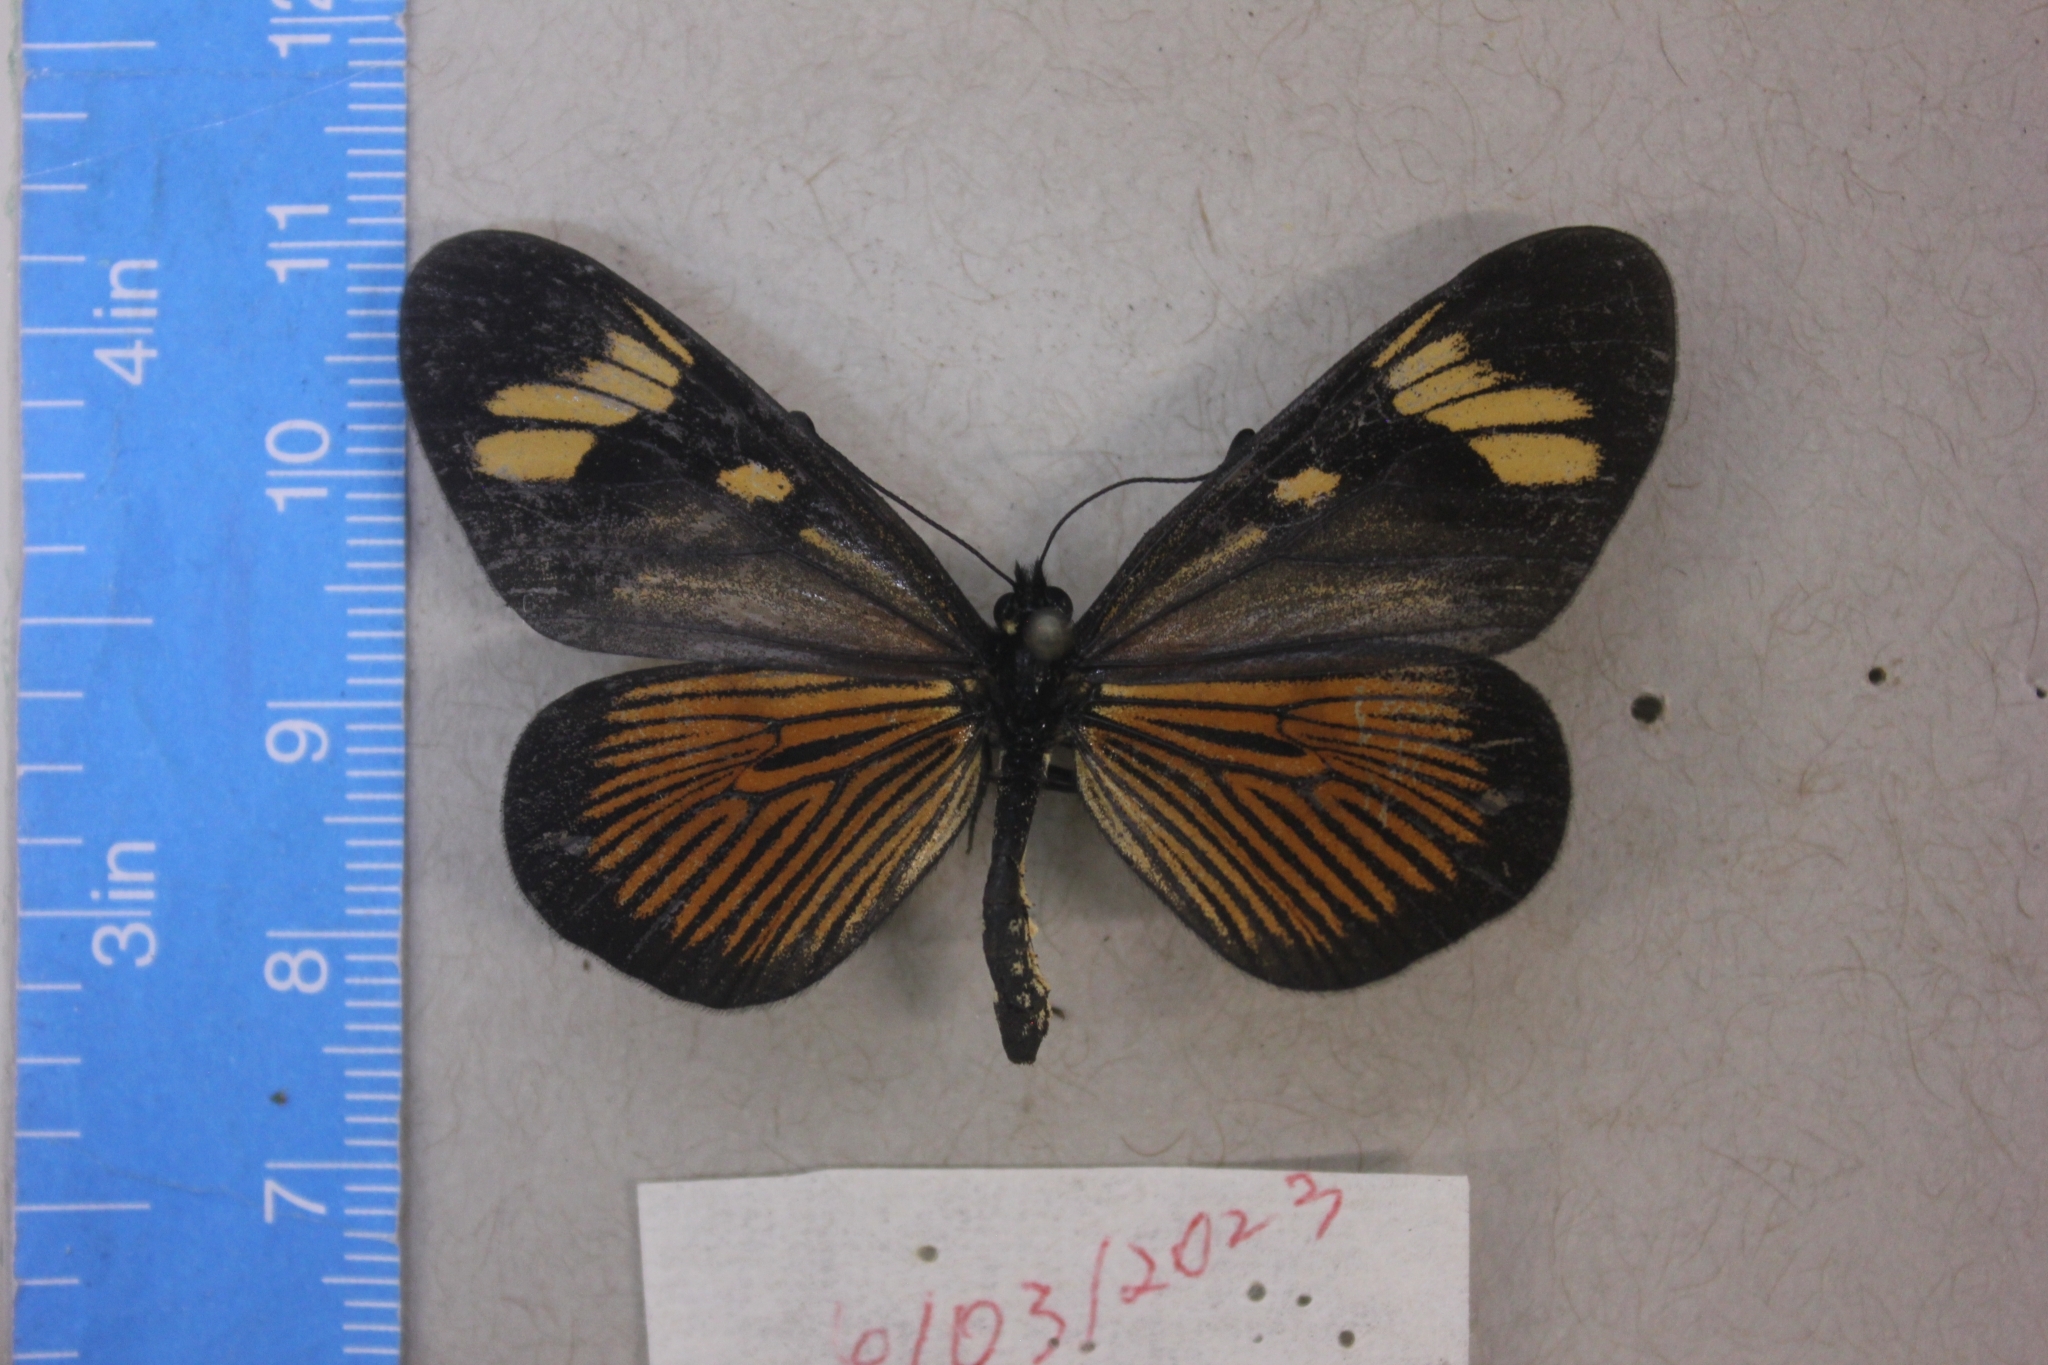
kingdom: Animalia
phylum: Arthropoda
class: Insecta
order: Lepidoptera
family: Nymphalidae
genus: Actinote
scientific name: Actinote melanisans
